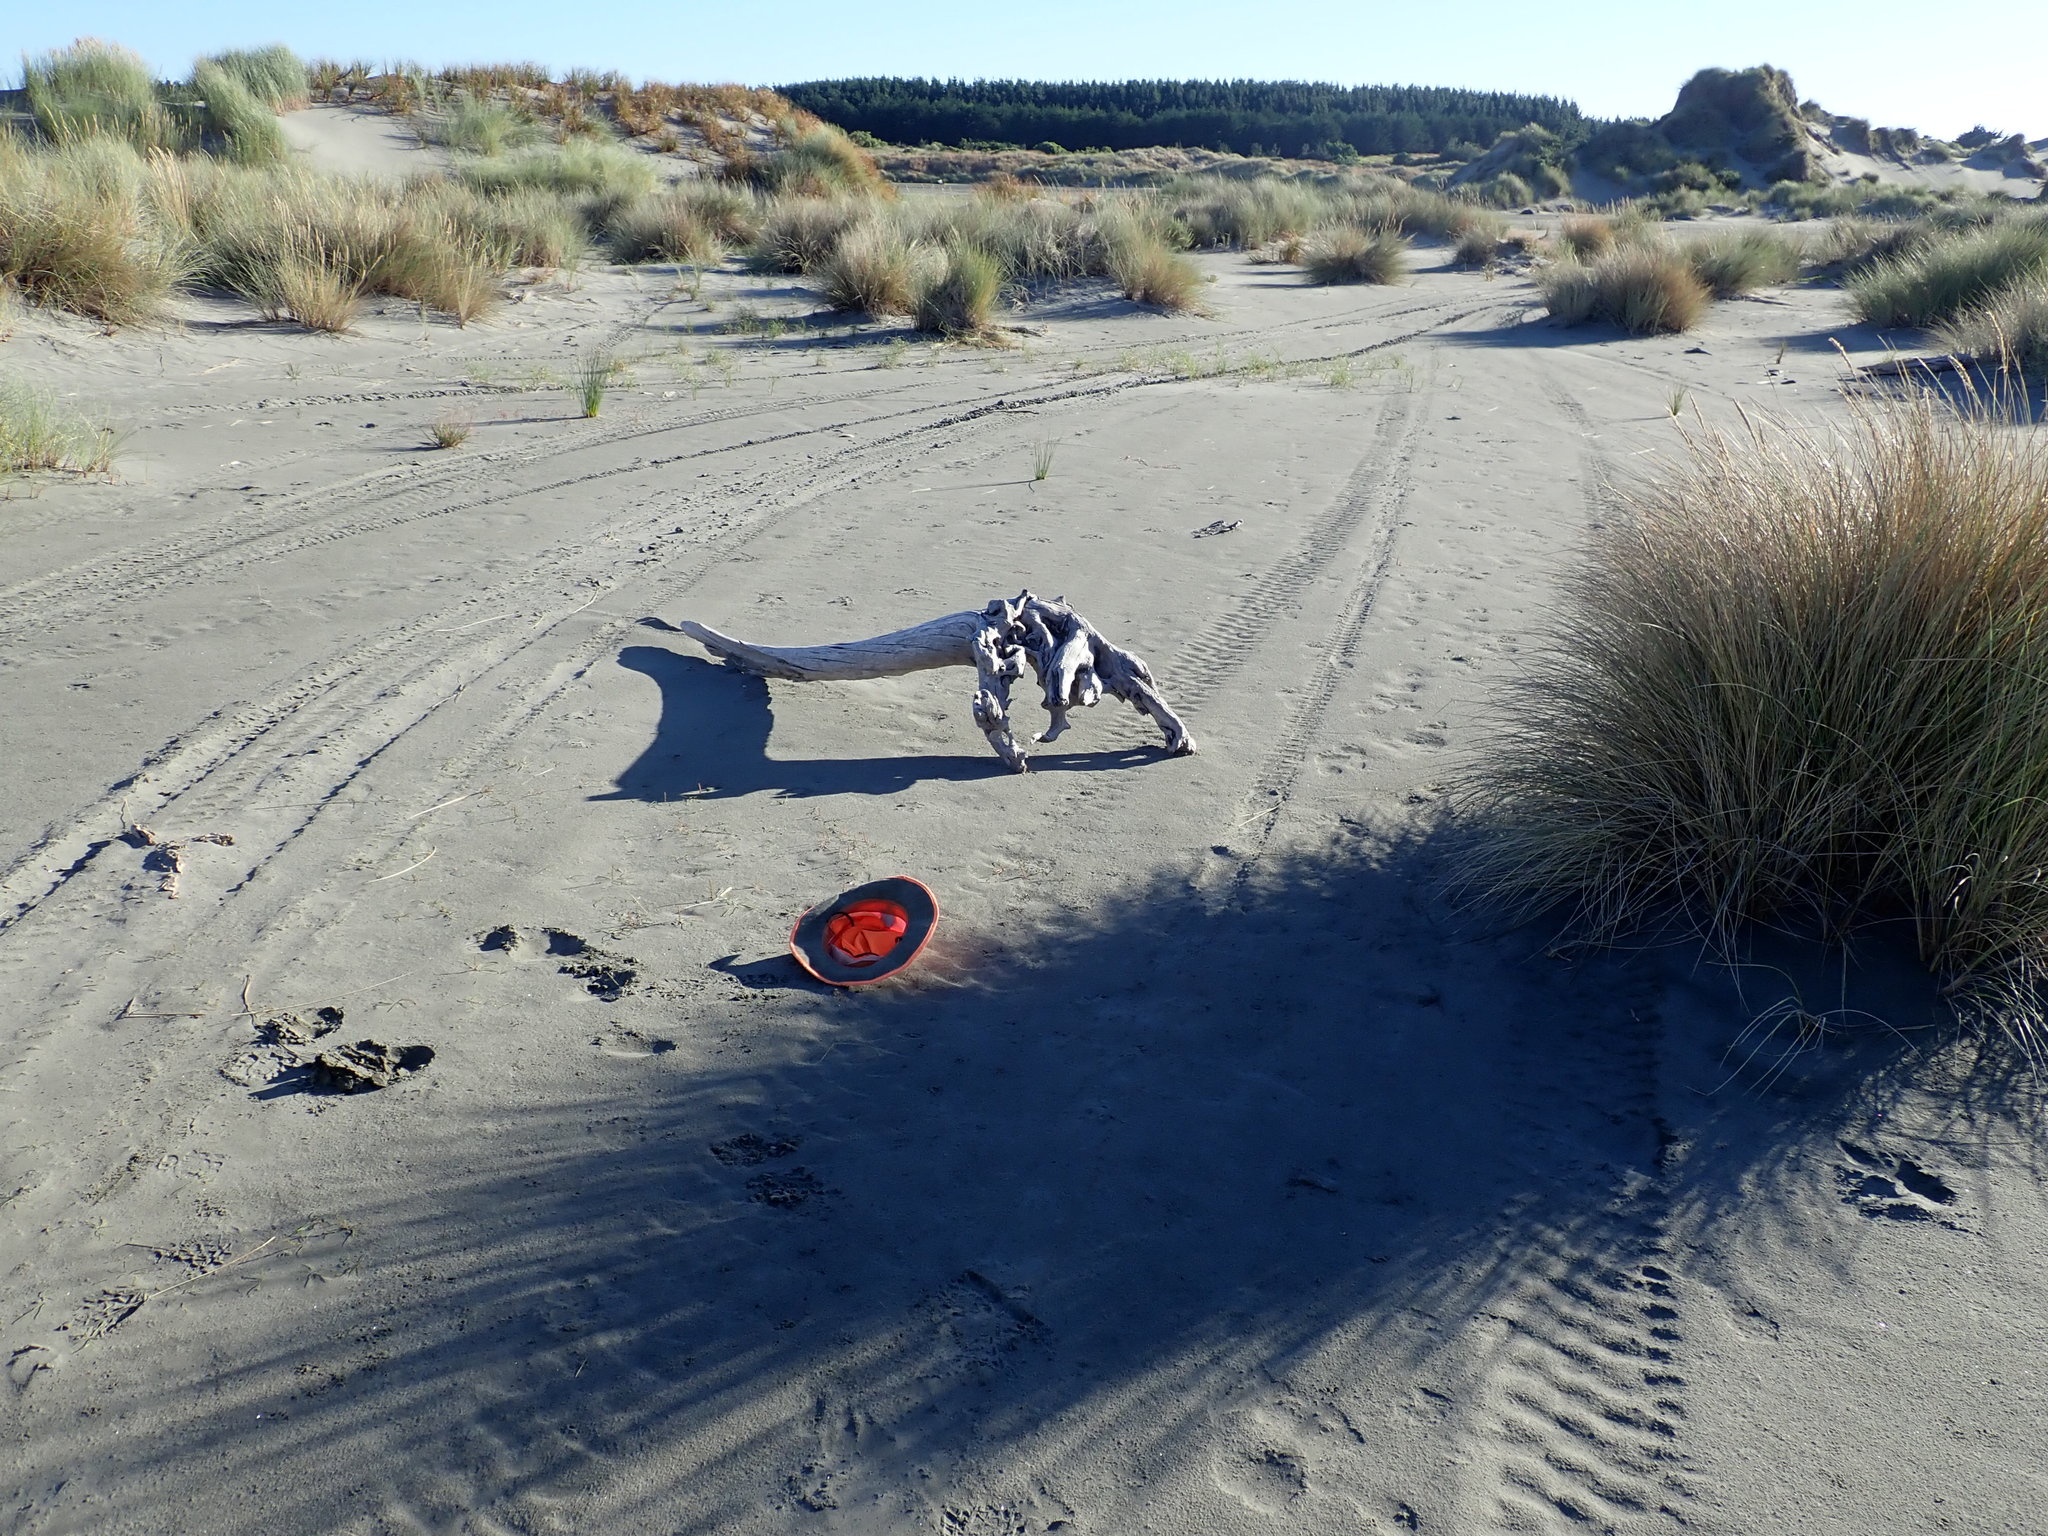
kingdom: Plantae
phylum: Tracheophyta
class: Liliopsida
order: Alismatales
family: Juncaginaceae
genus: Triglochin
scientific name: Triglochin striata
